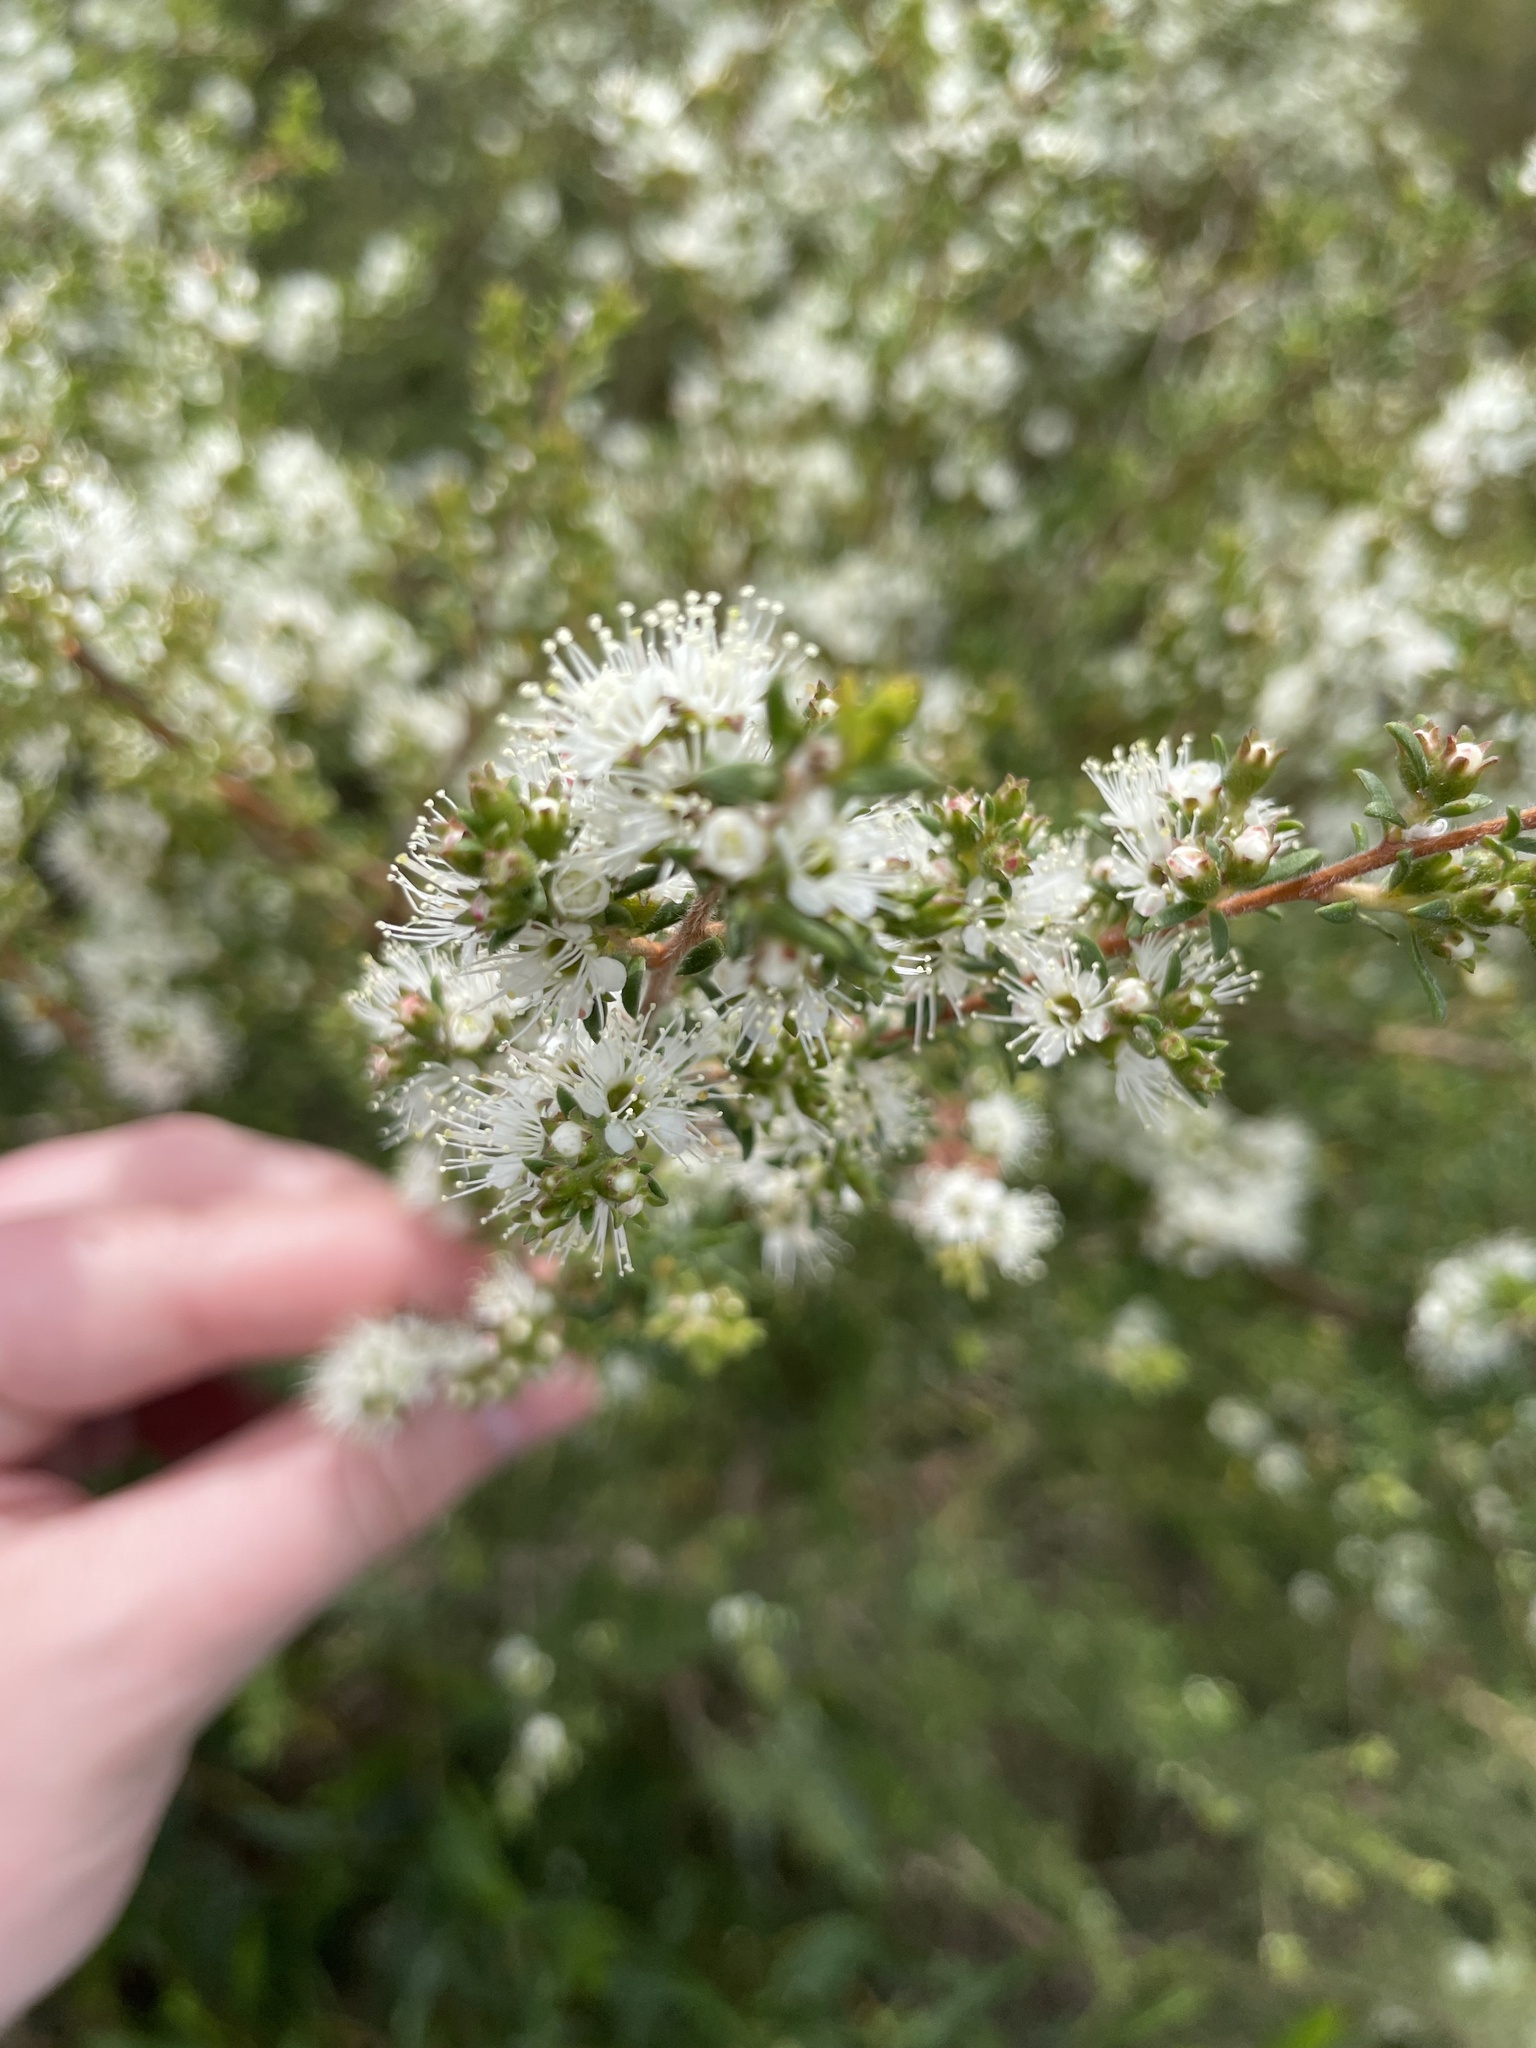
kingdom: Plantae
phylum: Tracheophyta
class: Magnoliopsida
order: Myrtales
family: Myrtaceae
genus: Kunzea
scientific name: Kunzea ambigua
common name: Tickbush
